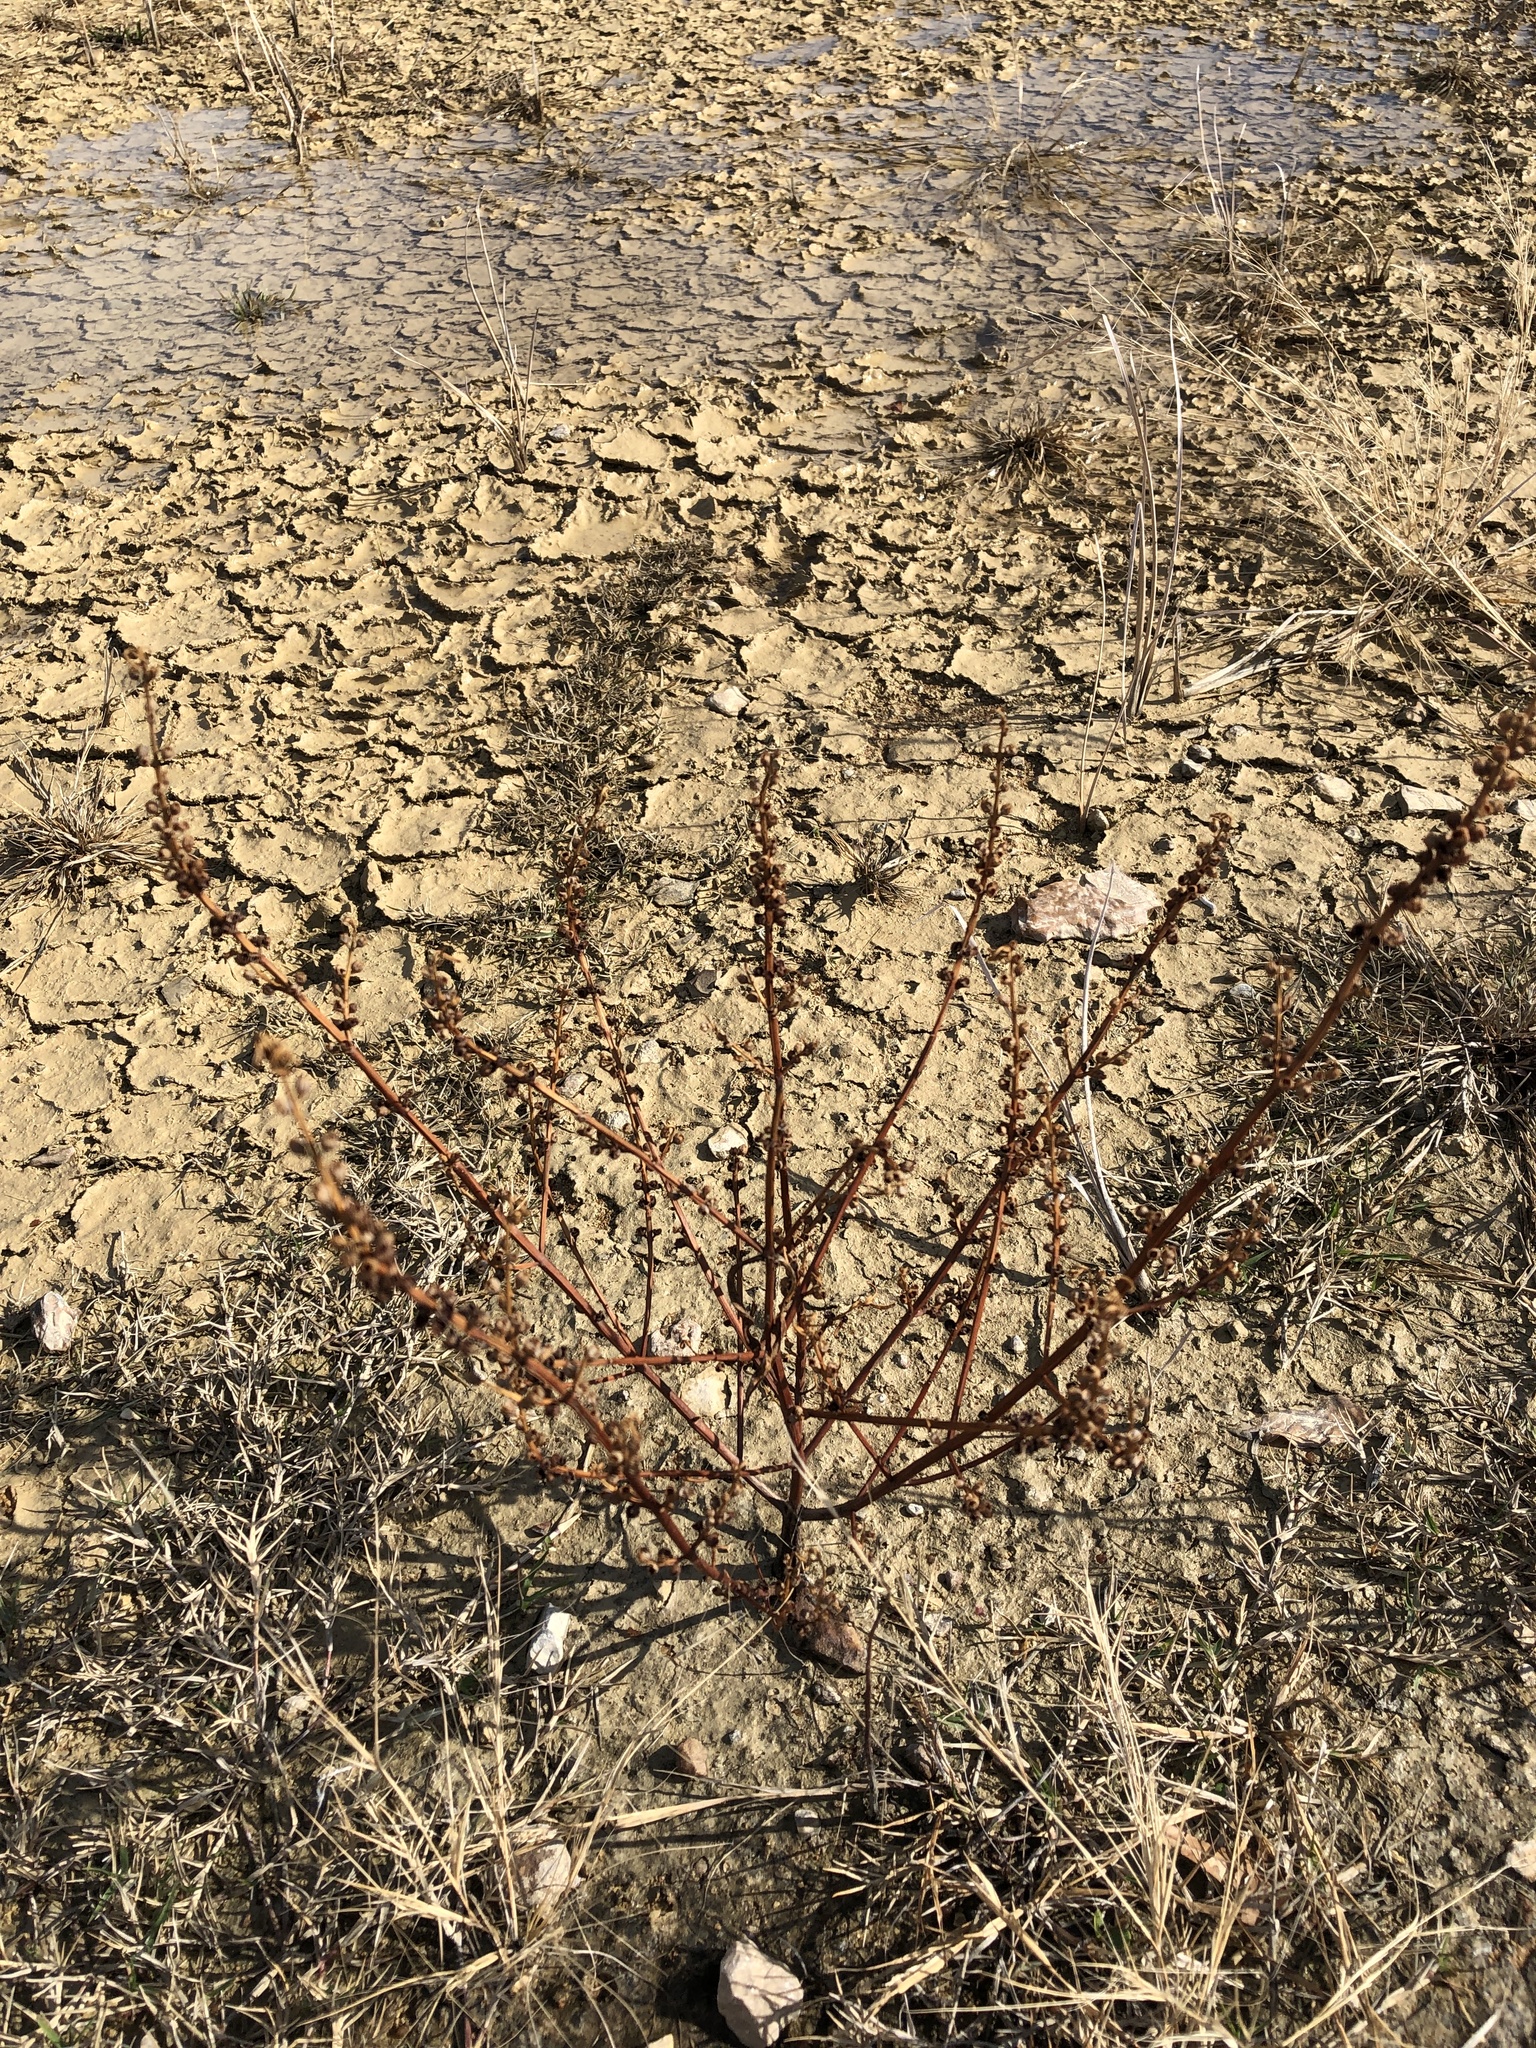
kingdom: Plantae
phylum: Tracheophyta
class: Magnoliopsida
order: Myrtales
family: Lythraceae
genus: Ammannia
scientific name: Ammannia coccinea
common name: Valley redstem
